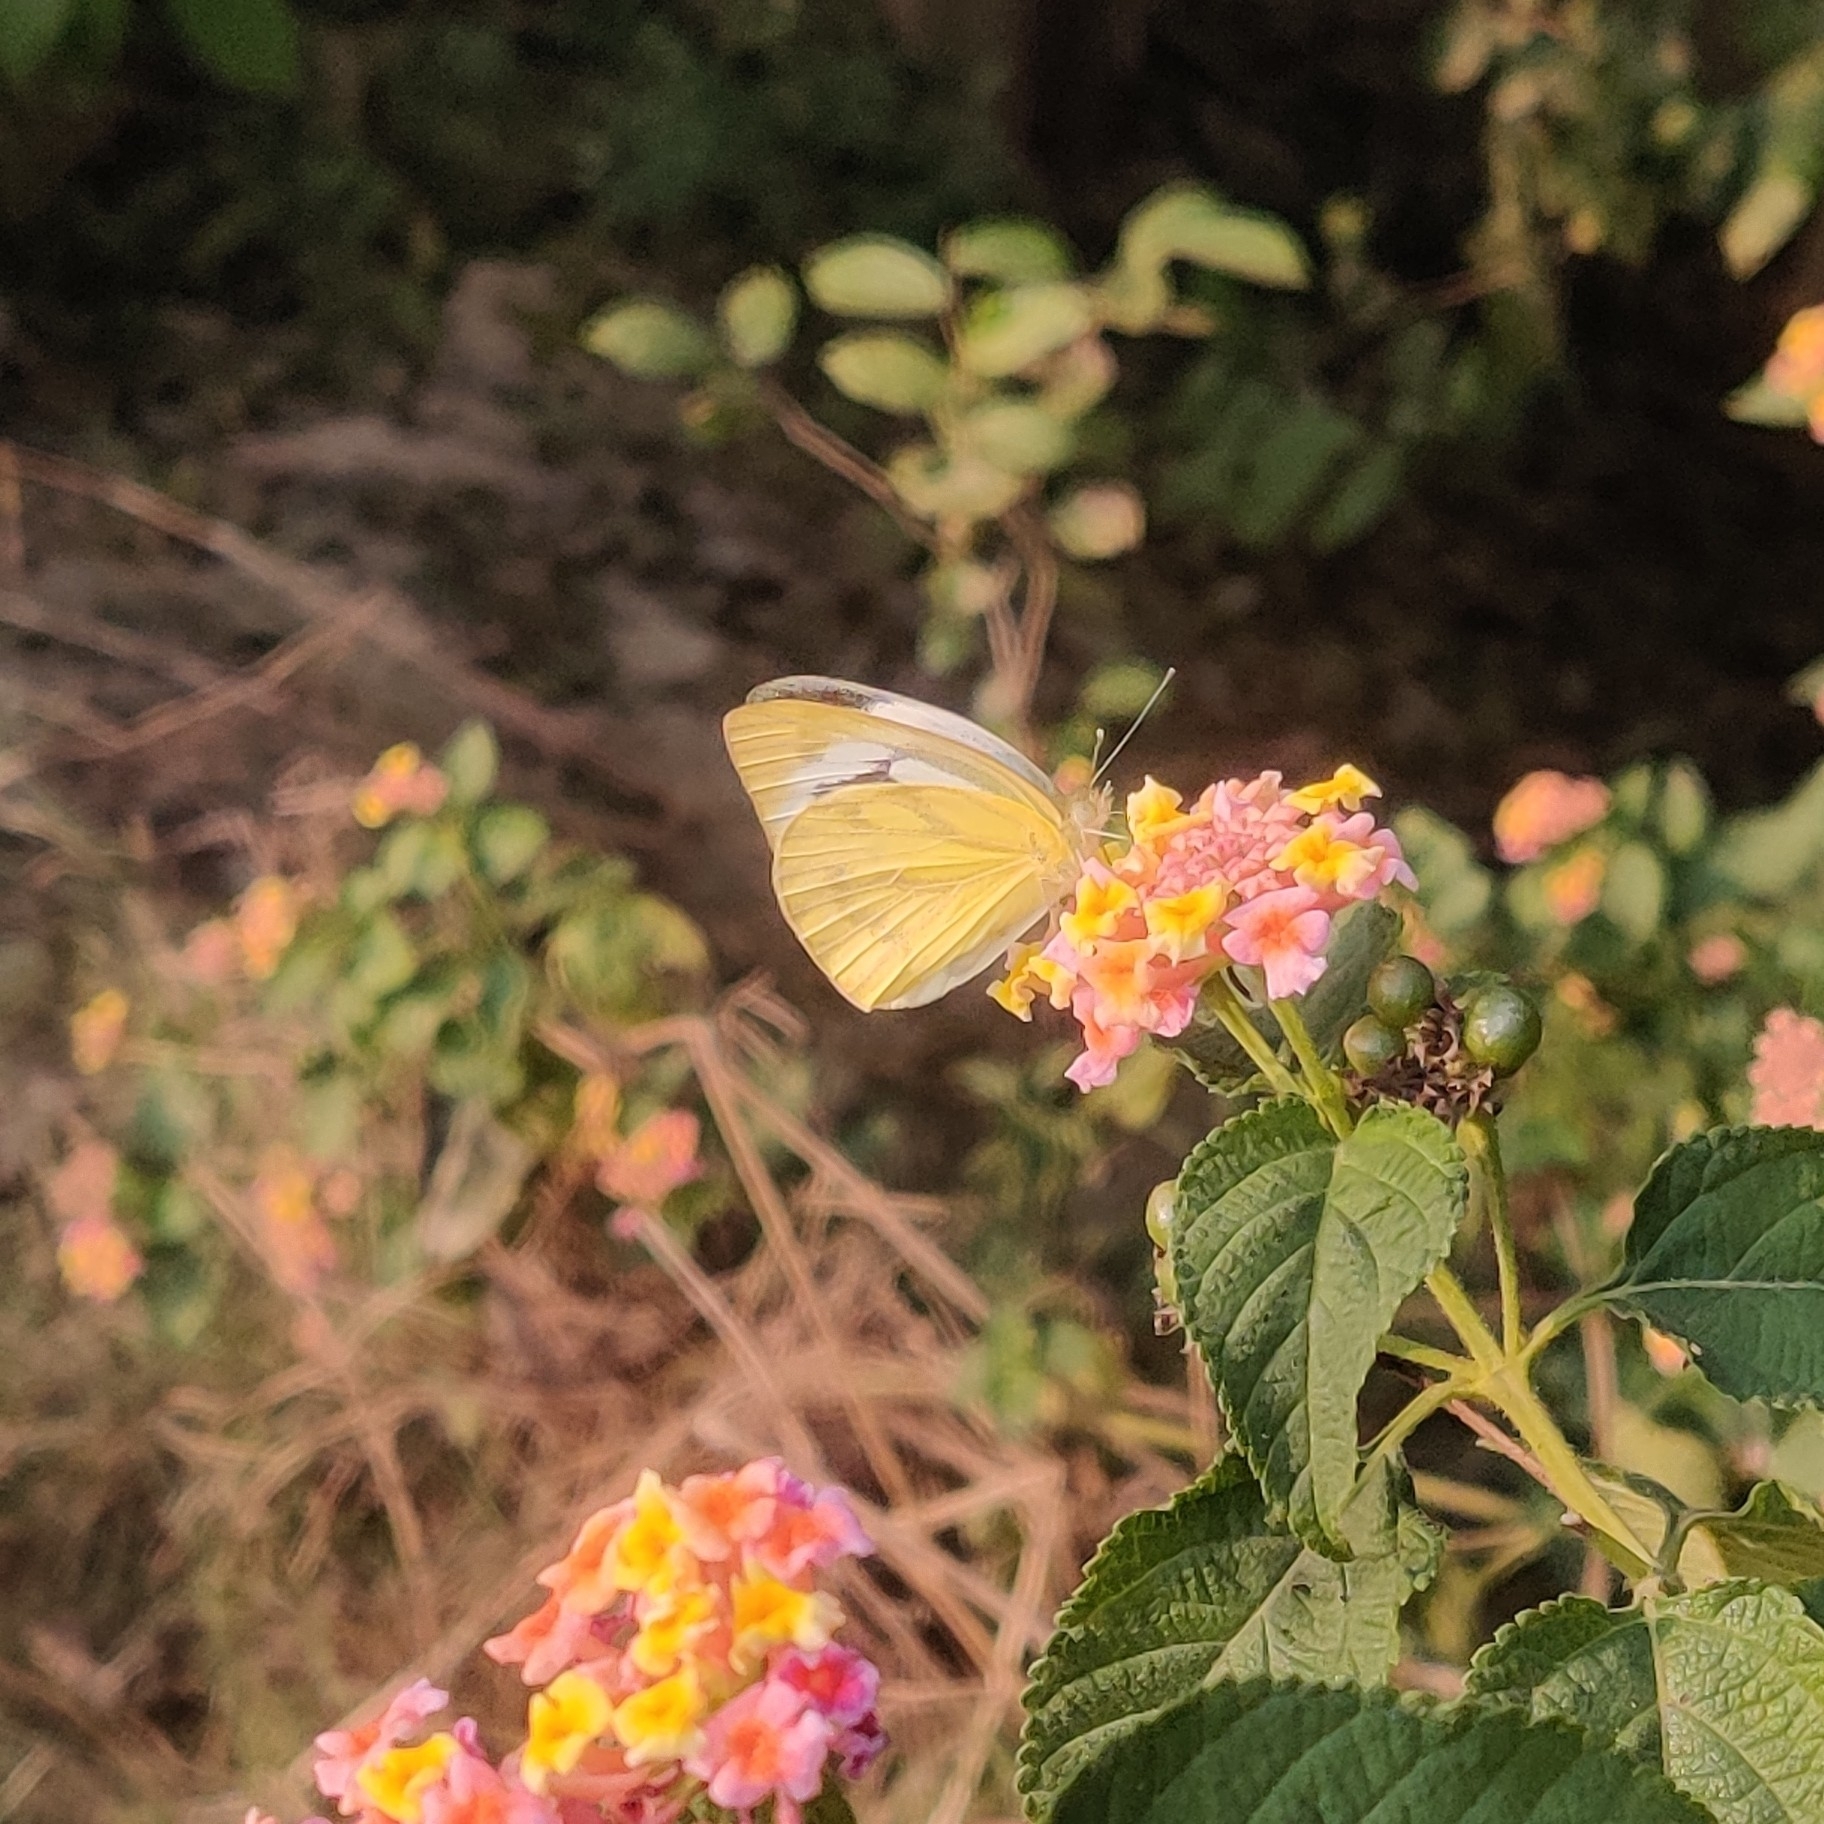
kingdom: Animalia
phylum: Arthropoda
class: Insecta
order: Lepidoptera
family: Pieridae
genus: Cepora
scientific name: Cepora nerissa
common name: Common gull
